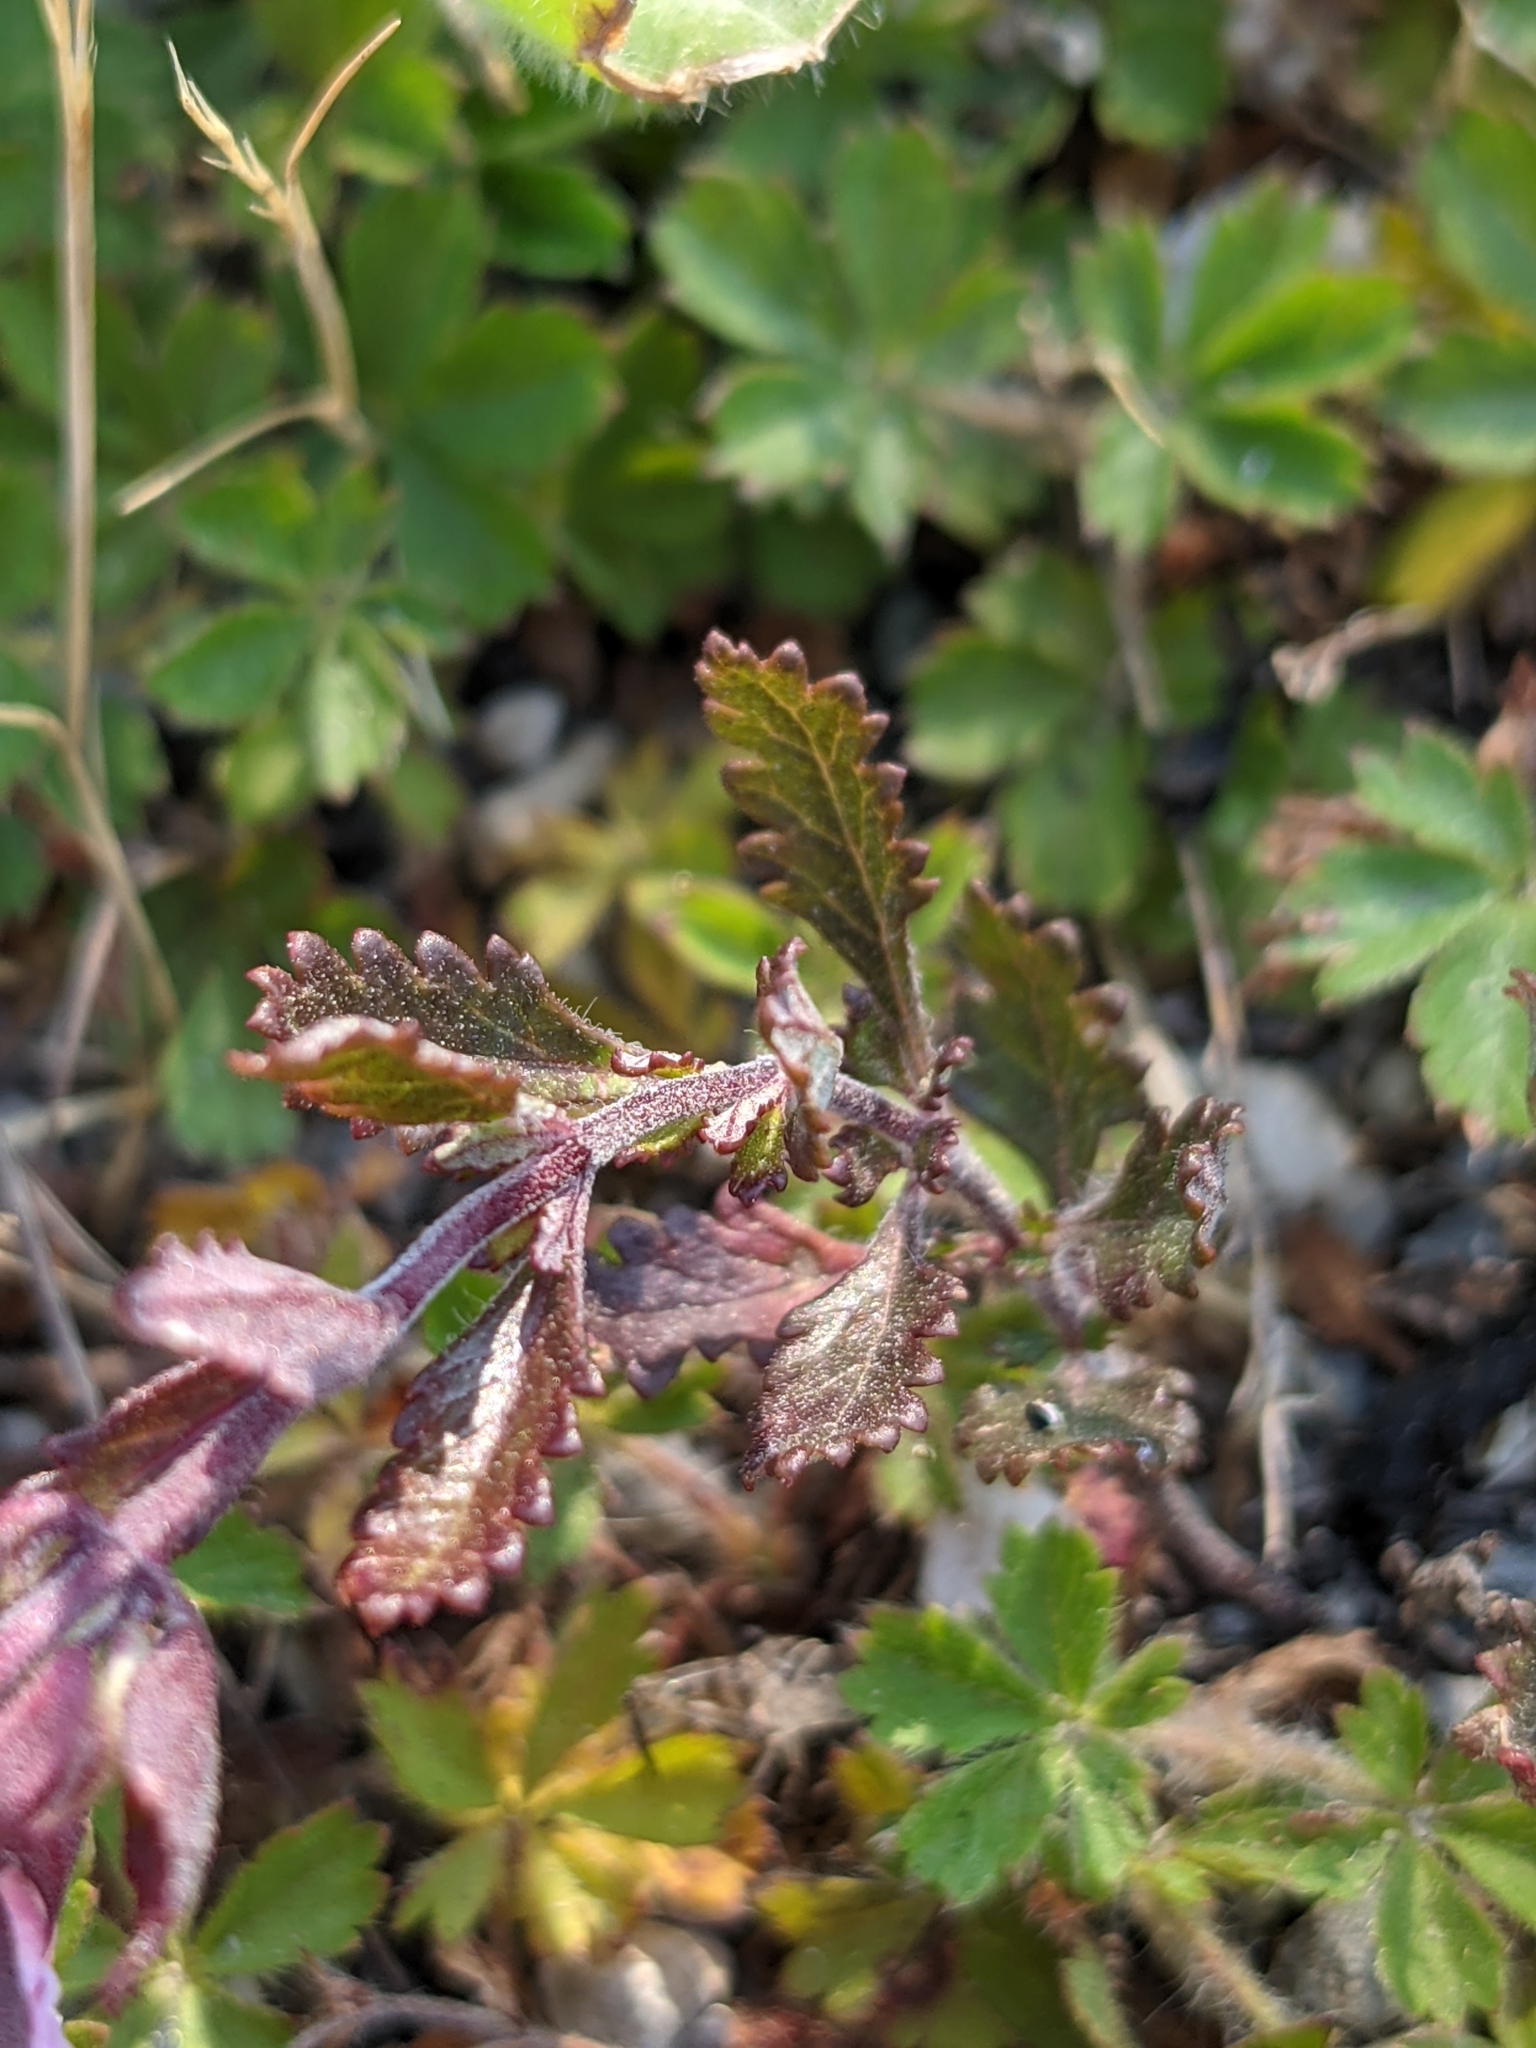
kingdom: Plantae
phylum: Tracheophyta
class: Magnoliopsida
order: Lamiales
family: Lamiaceae
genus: Teucrium
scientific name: Teucrium chamaedrys
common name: Wall germander
